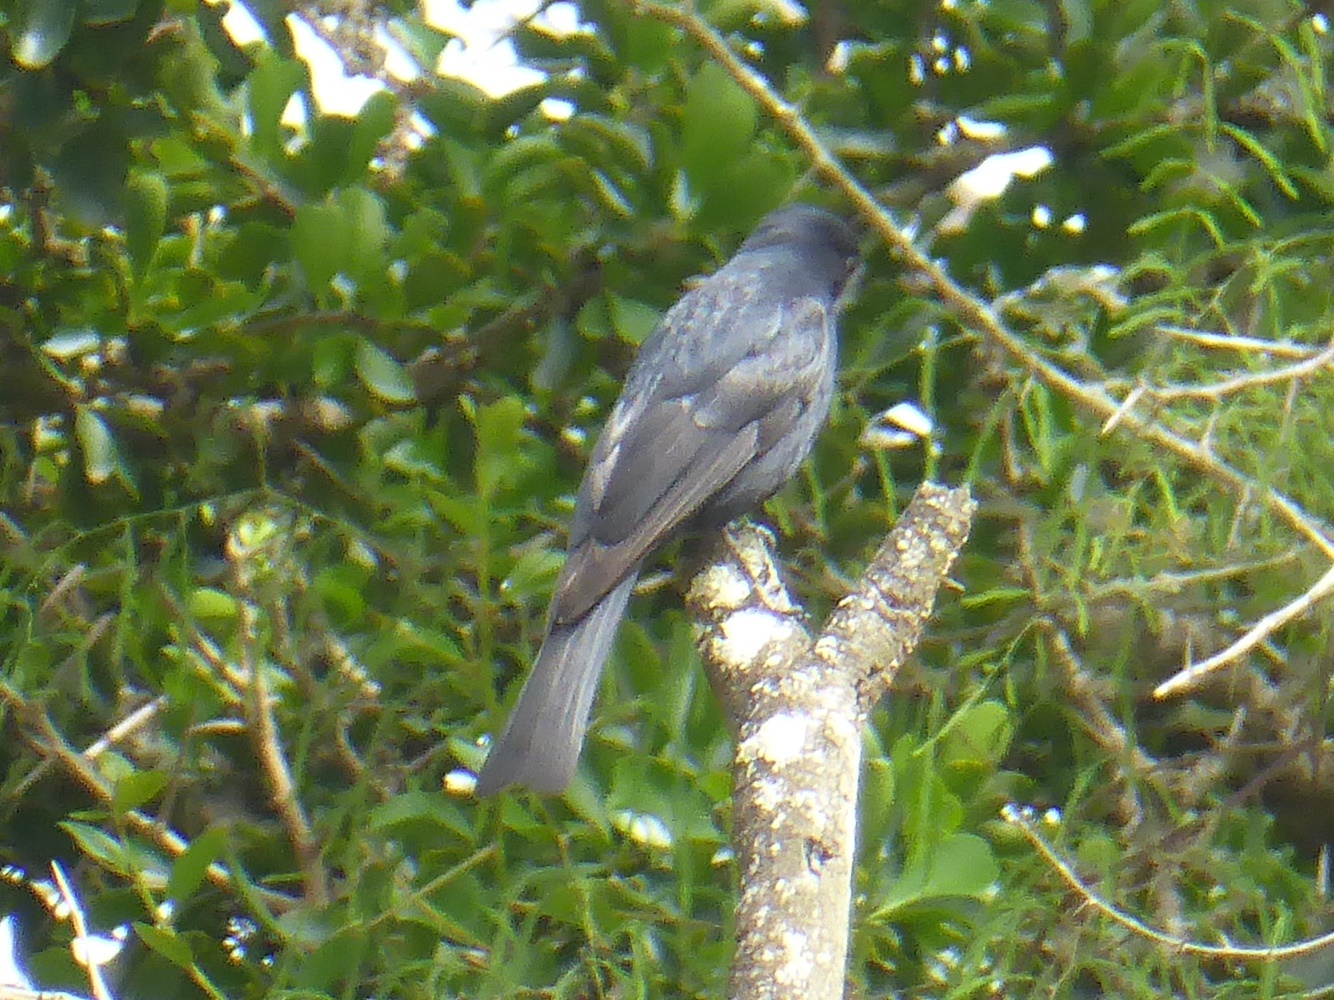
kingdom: Animalia
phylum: Chordata
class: Aves
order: Passeriformes
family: Muscicapidae
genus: Melaenornis
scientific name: Melaenornis pammelaina
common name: Southern black flycatcher
